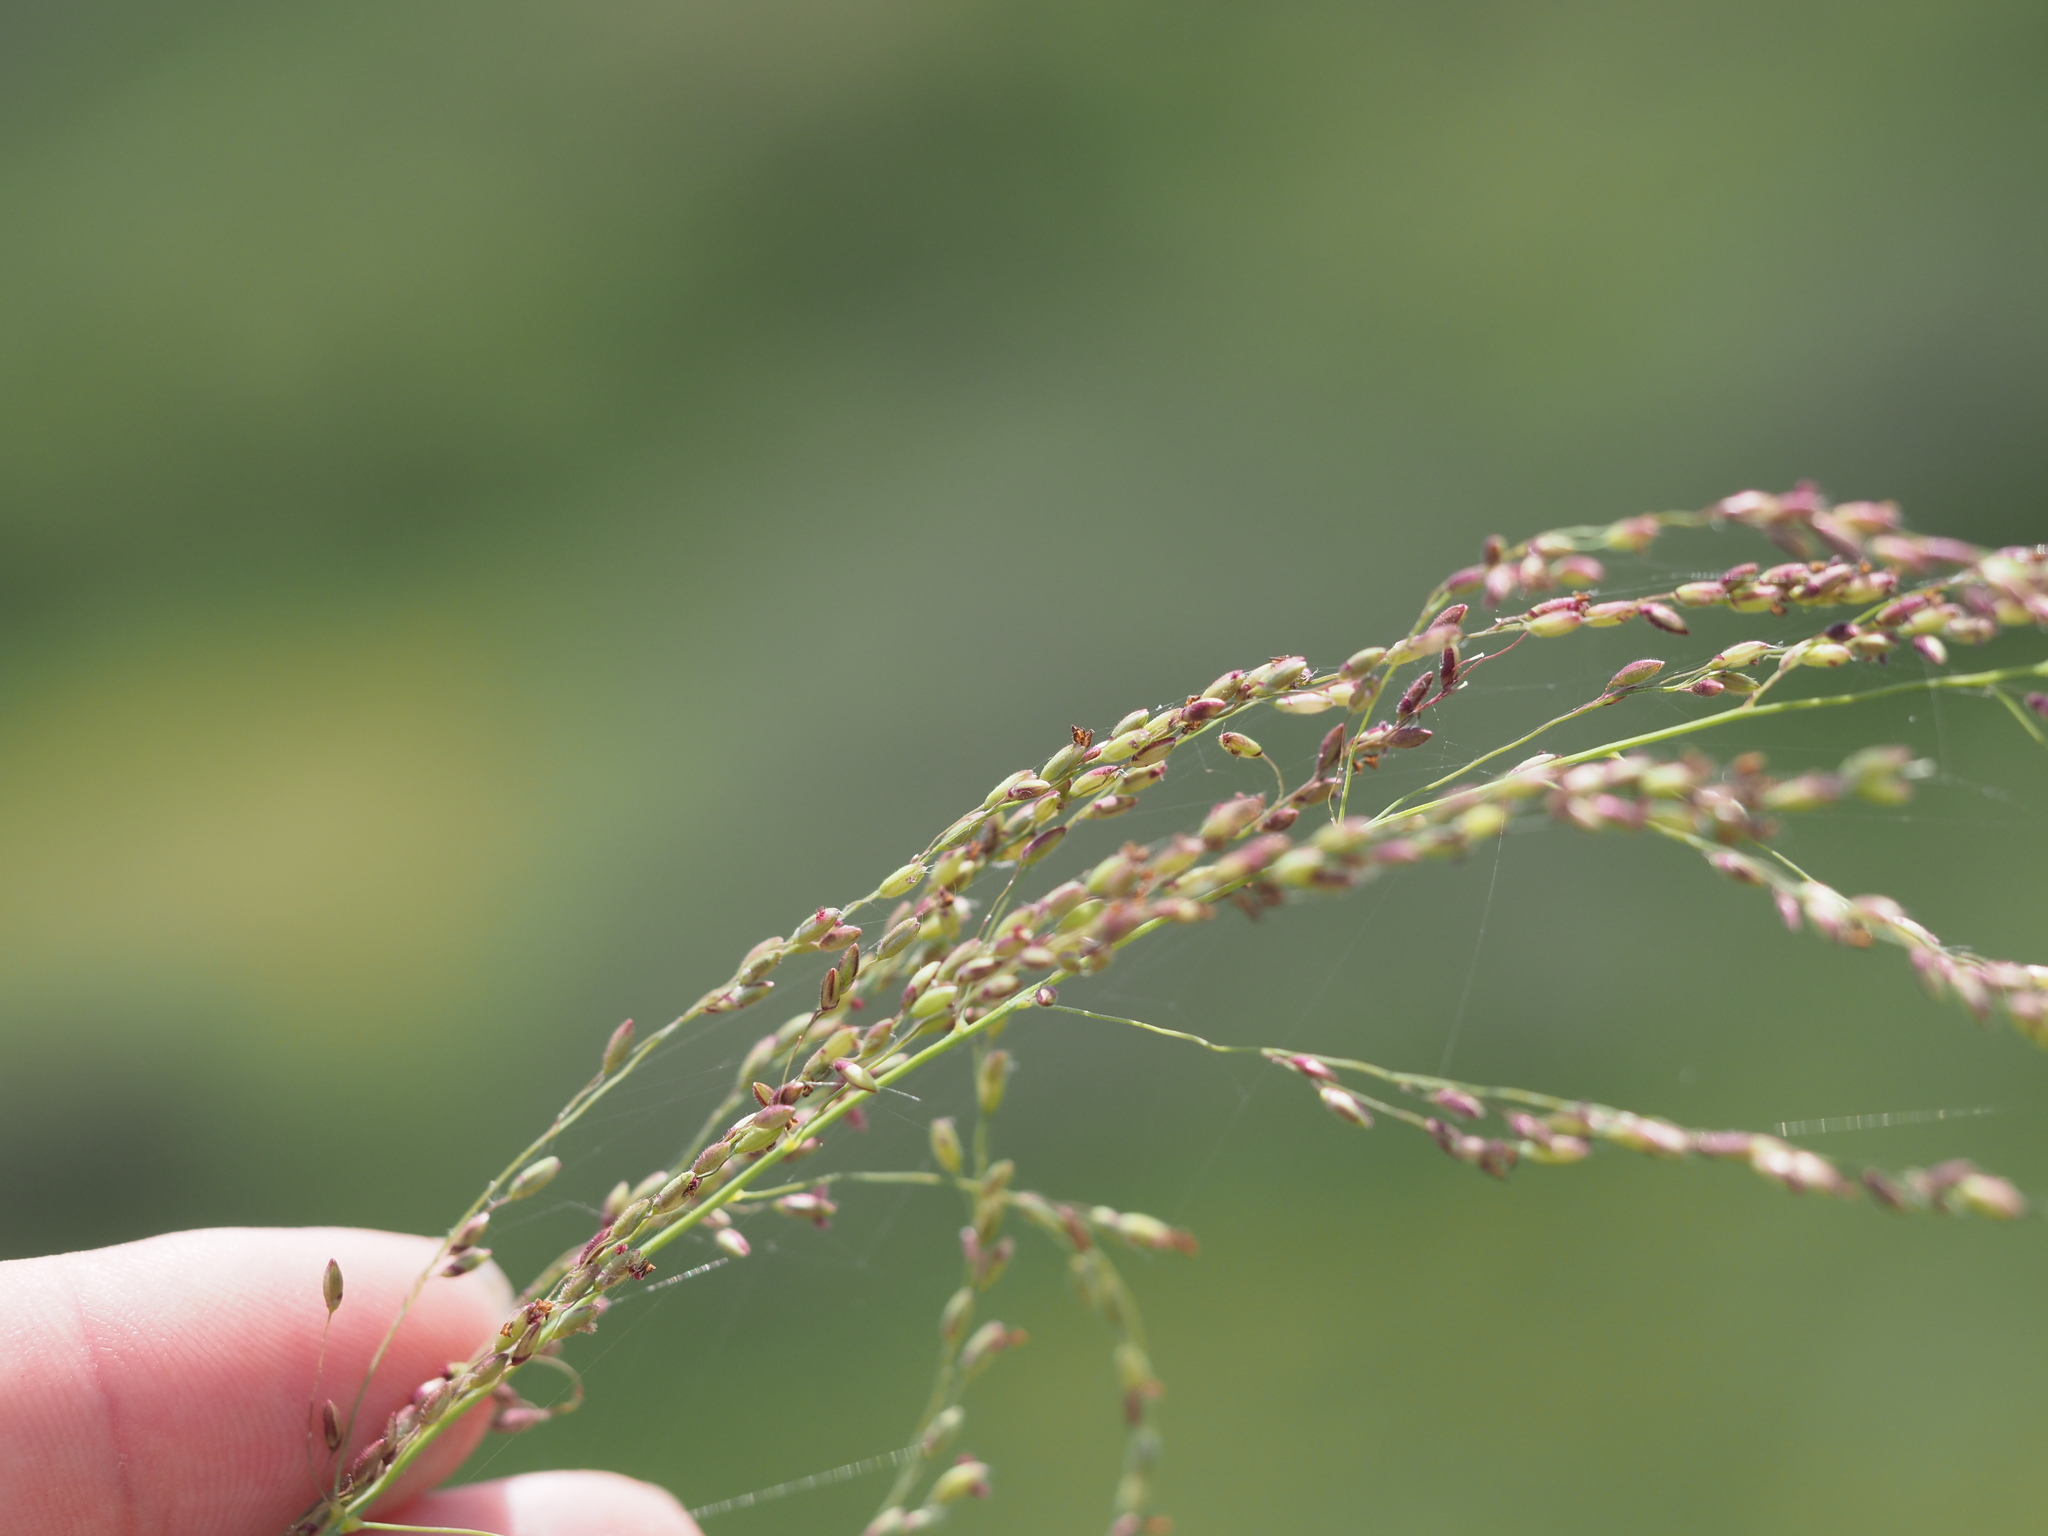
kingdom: Plantae
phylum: Tracheophyta
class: Liliopsida
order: Poales
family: Poaceae
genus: Megathyrsus
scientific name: Megathyrsus maximus
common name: Guineagrass
